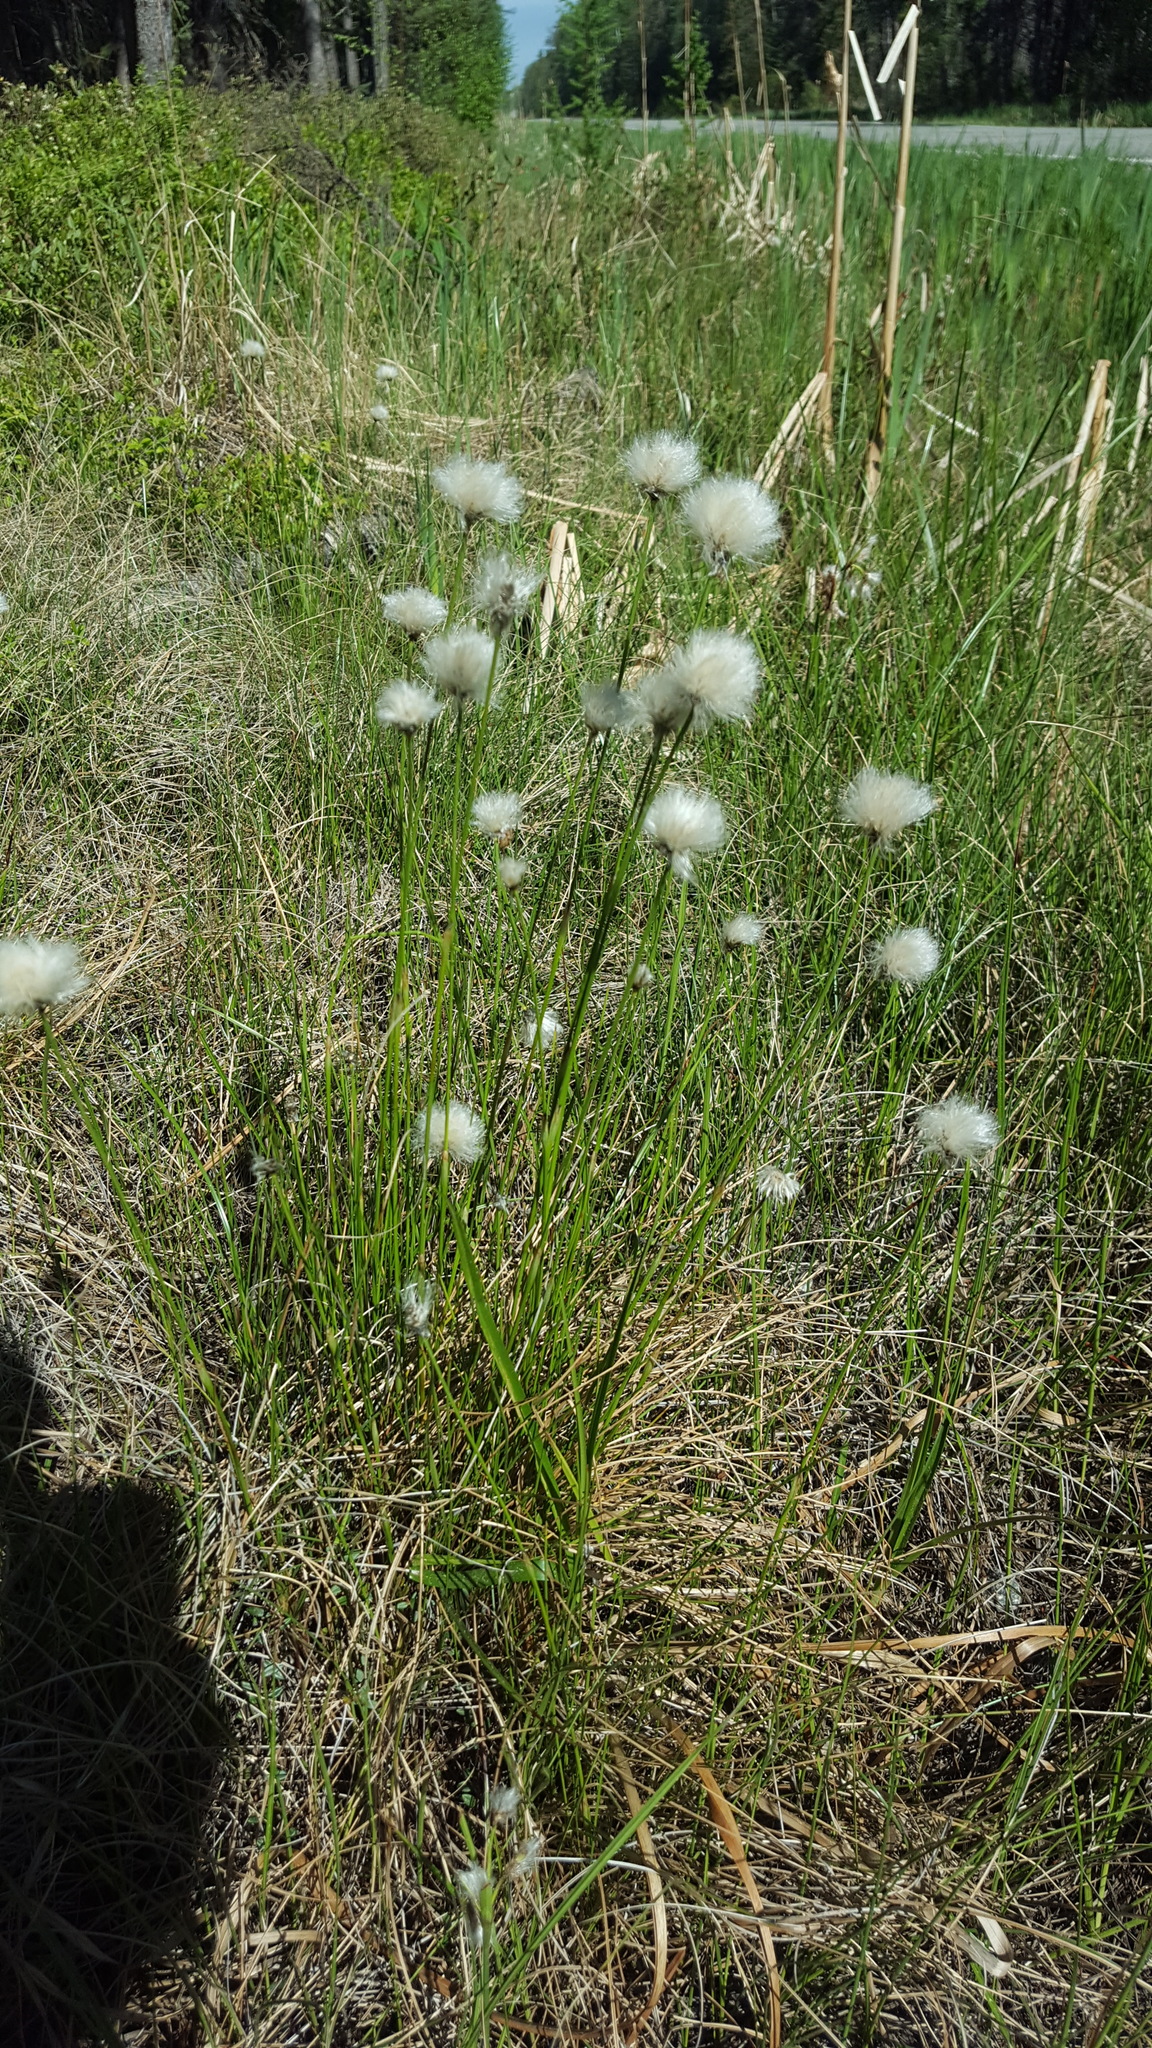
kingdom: Plantae
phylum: Tracheophyta
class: Liliopsida
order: Poales
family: Cyperaceae
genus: Eriophorum
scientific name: Eriophorum vaginatum
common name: Hare's-tail cottongrass
